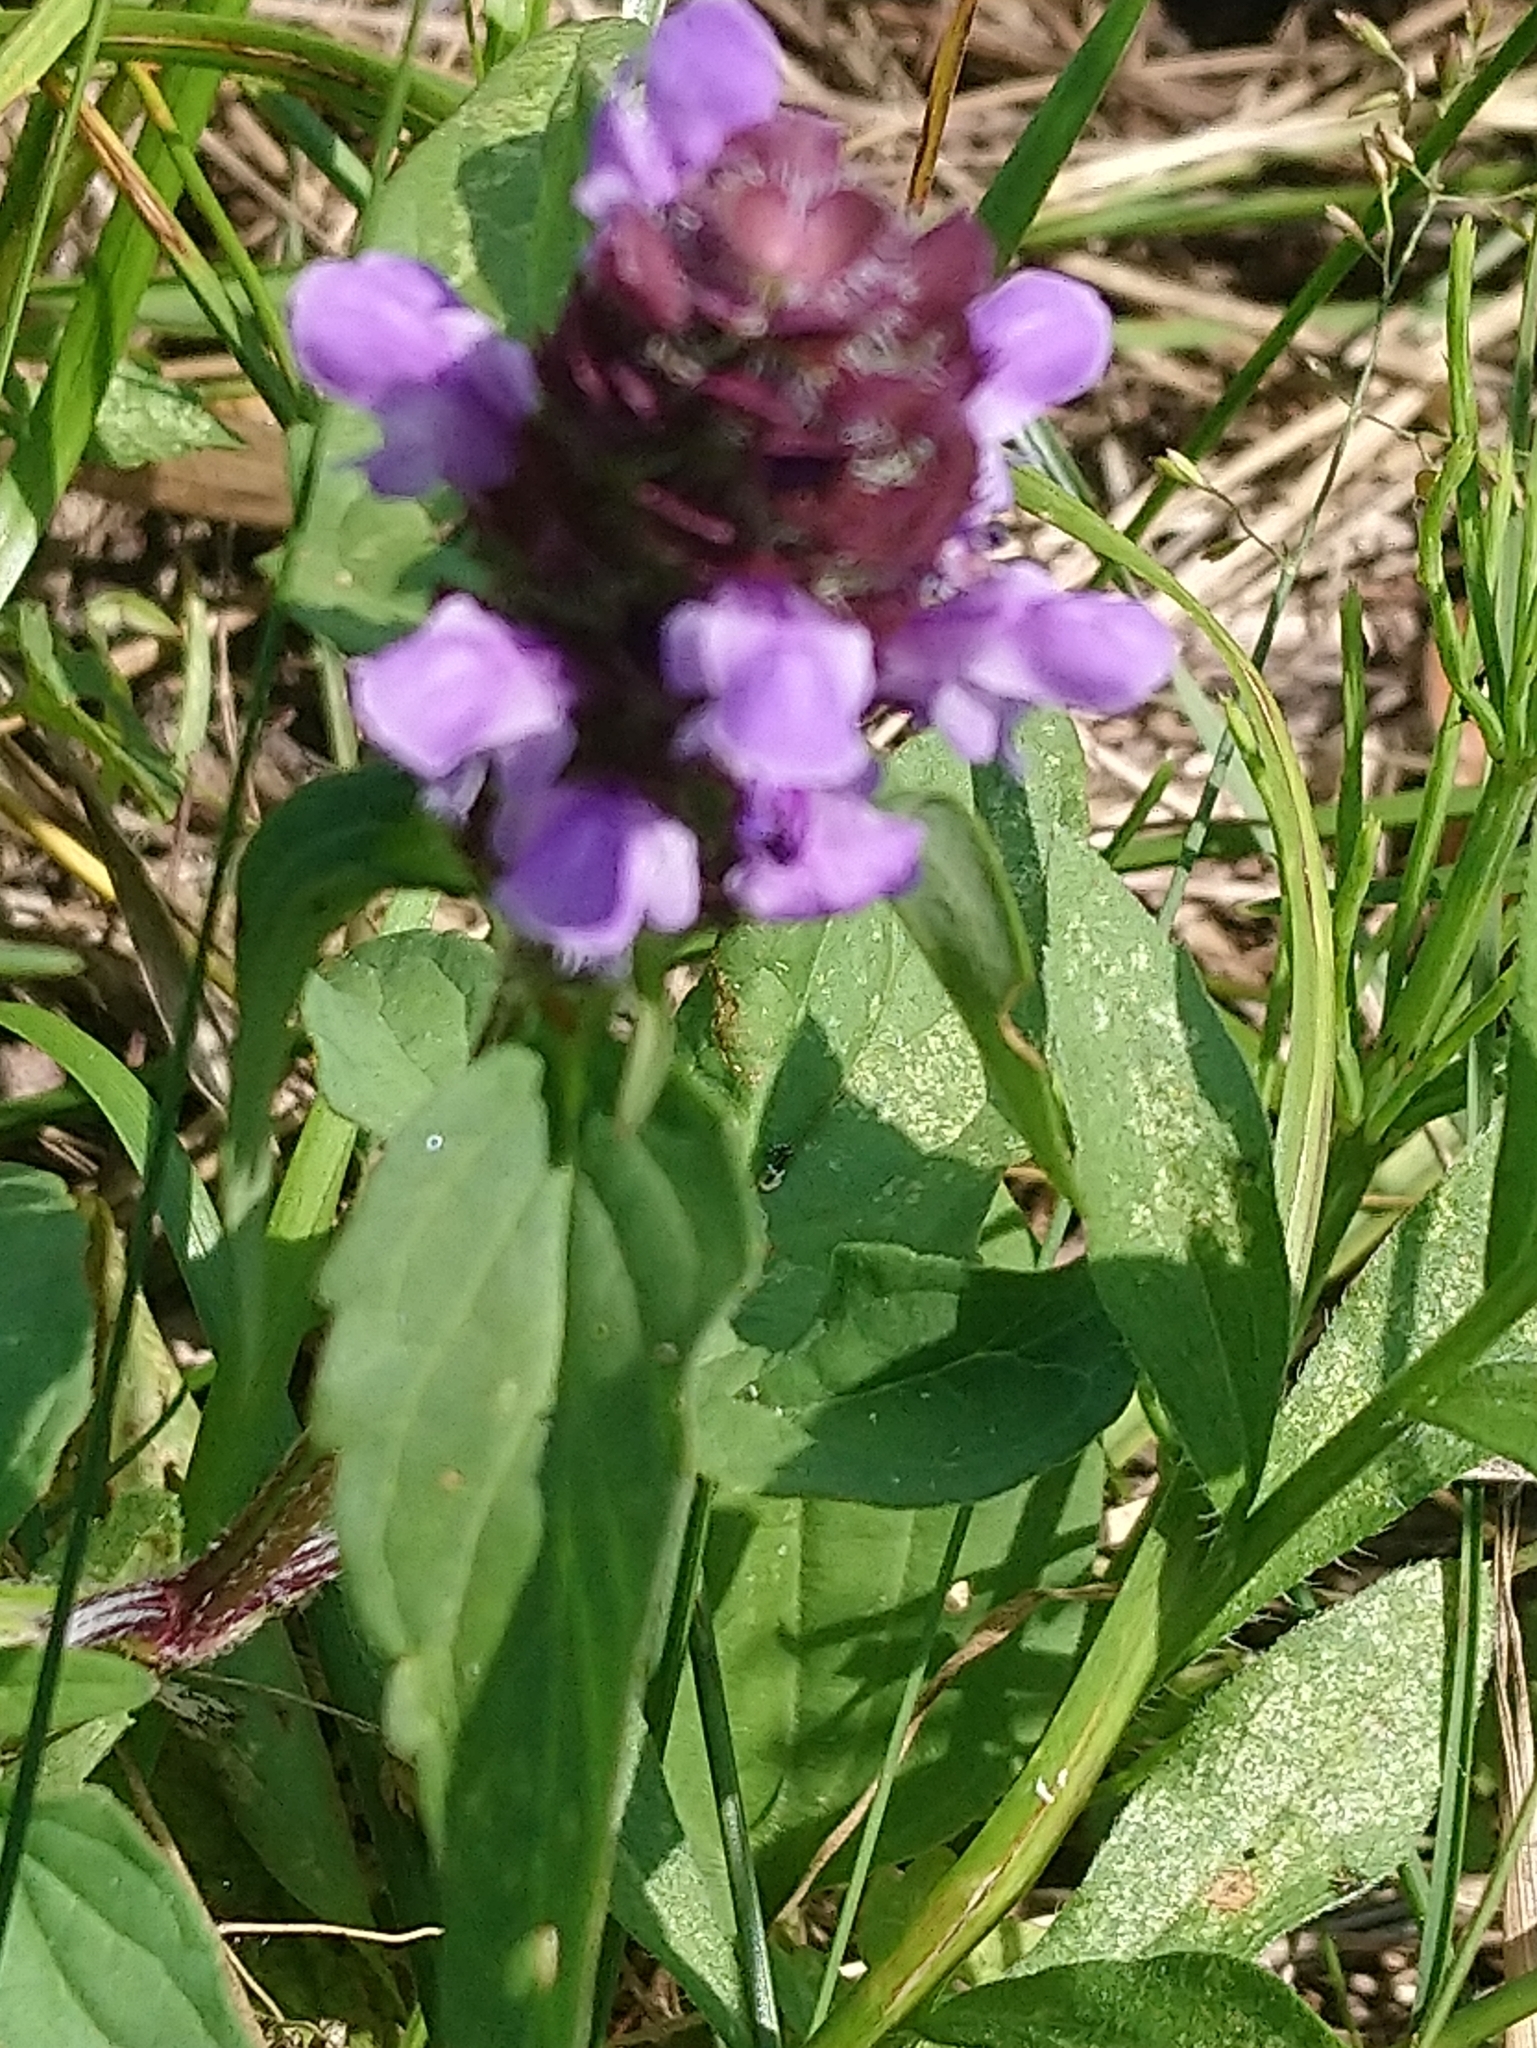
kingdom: Plantae
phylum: Tracheophyta
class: Magnoliopsida
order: Lamiales
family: Lamiaceae
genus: Prunella
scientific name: Prunella vulgaris
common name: Heal-all
